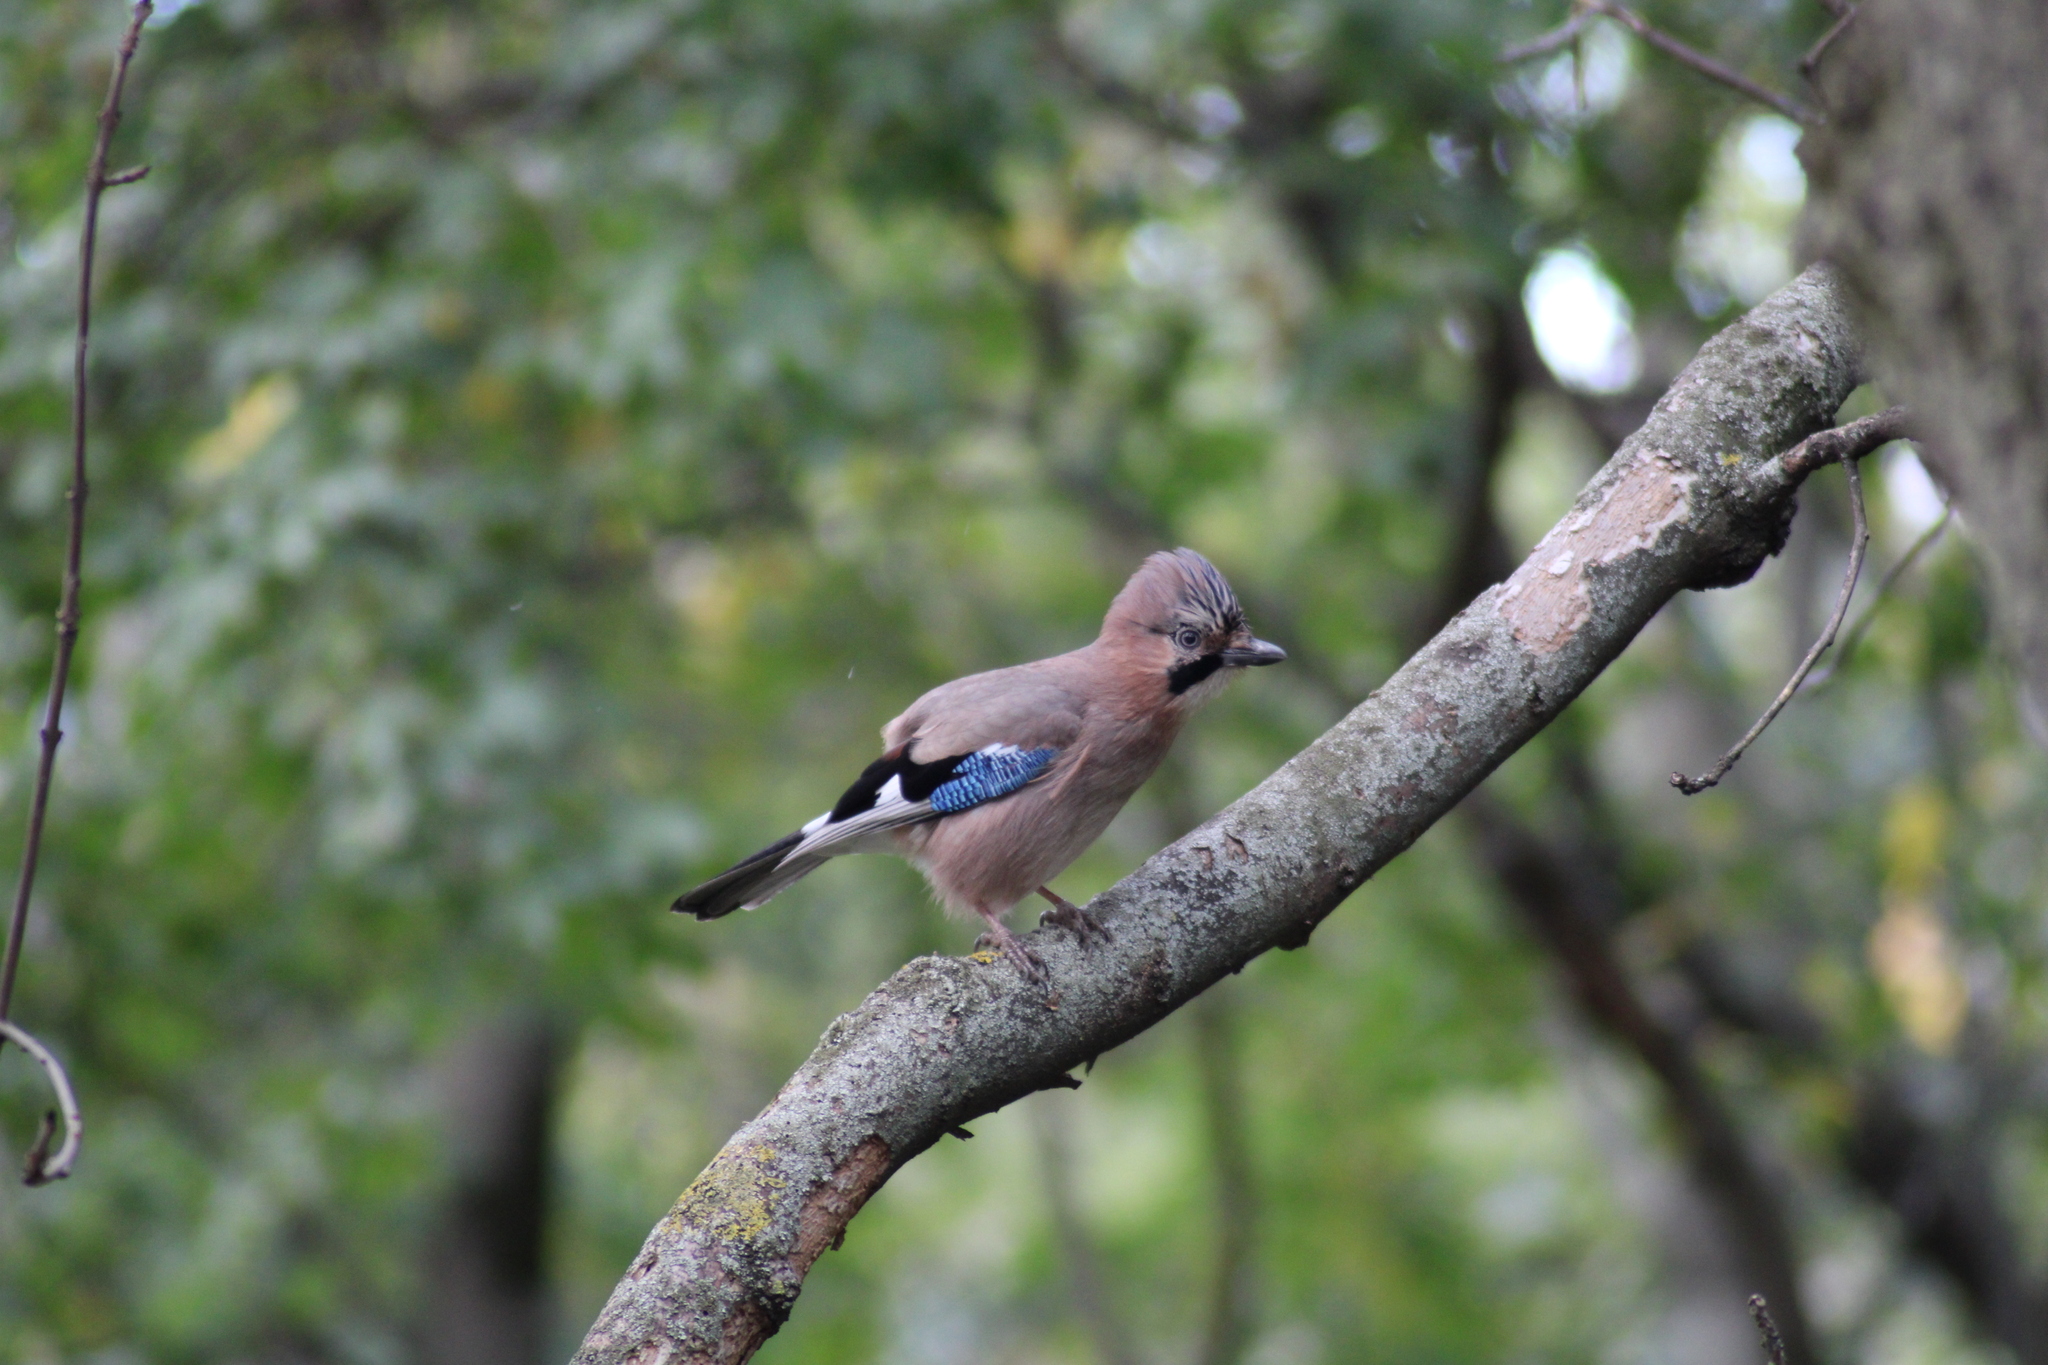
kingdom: Animalia
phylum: Chordata
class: Aves
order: Passeriformes
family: Corvidae
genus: Garrulus
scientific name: Garrulus glandarius
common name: Eurasian jay
